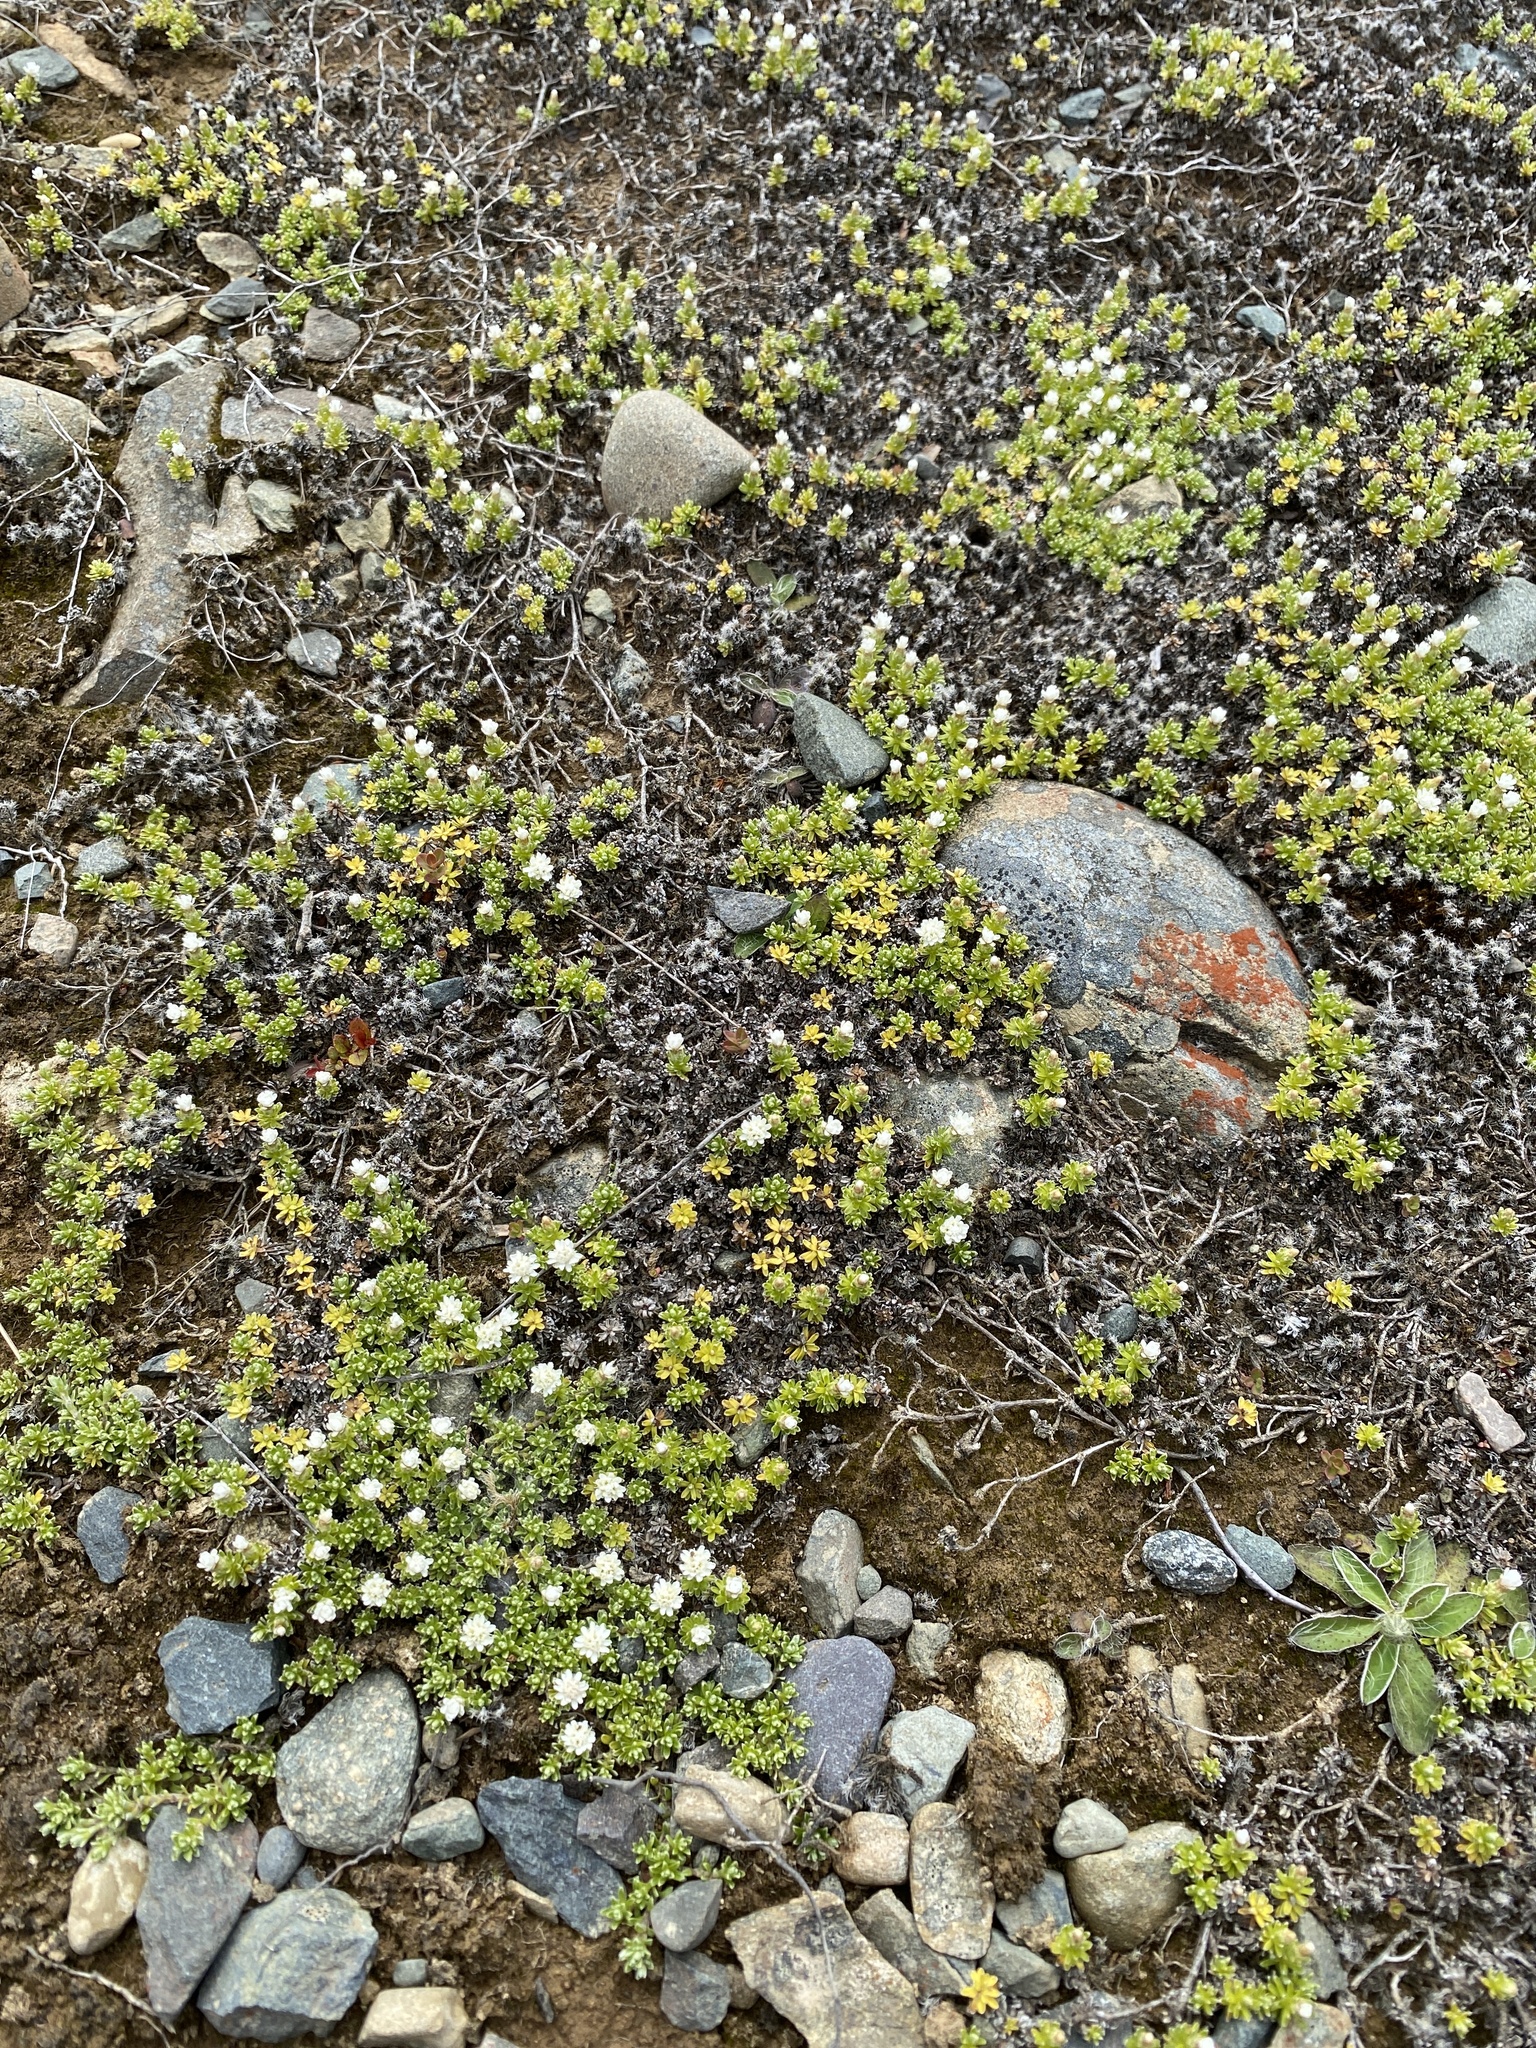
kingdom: Plantae
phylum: Tracheophyta
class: Magnoliopsida
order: Asterales
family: Asteraceae
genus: Raoulia
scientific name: Raoulia subsericea
